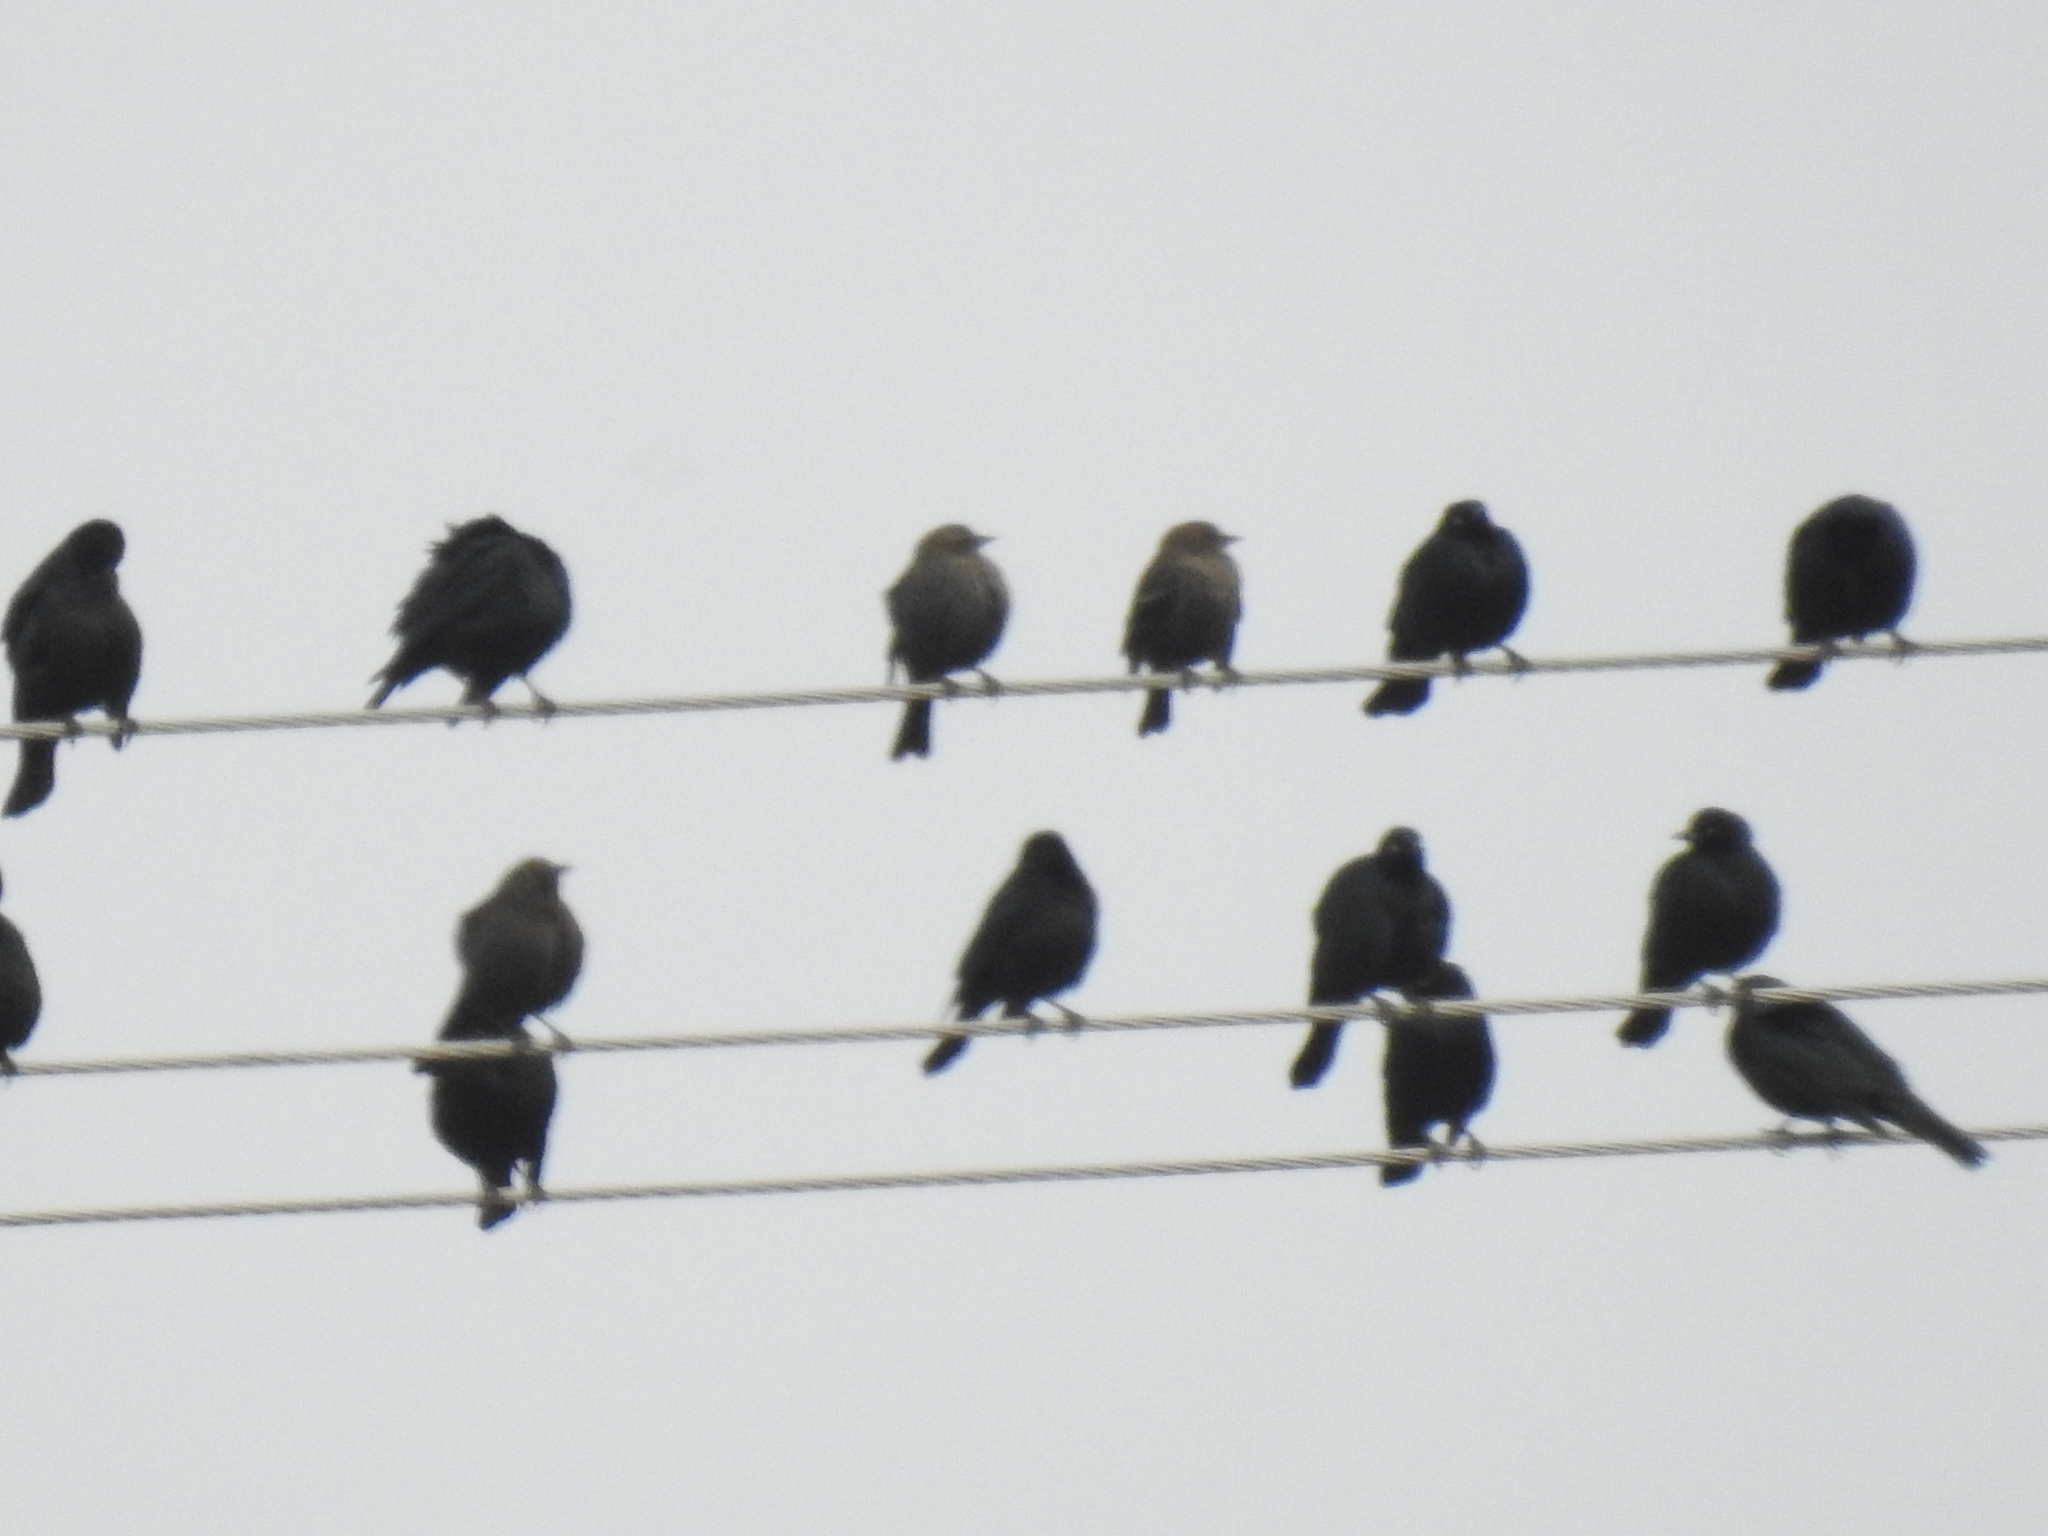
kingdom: Animalia
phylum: Chordata
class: Aves
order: Passeriformes
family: Icteridae
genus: Euphagus
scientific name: Euphagus cyanocephalus
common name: Brewer's blackbird
